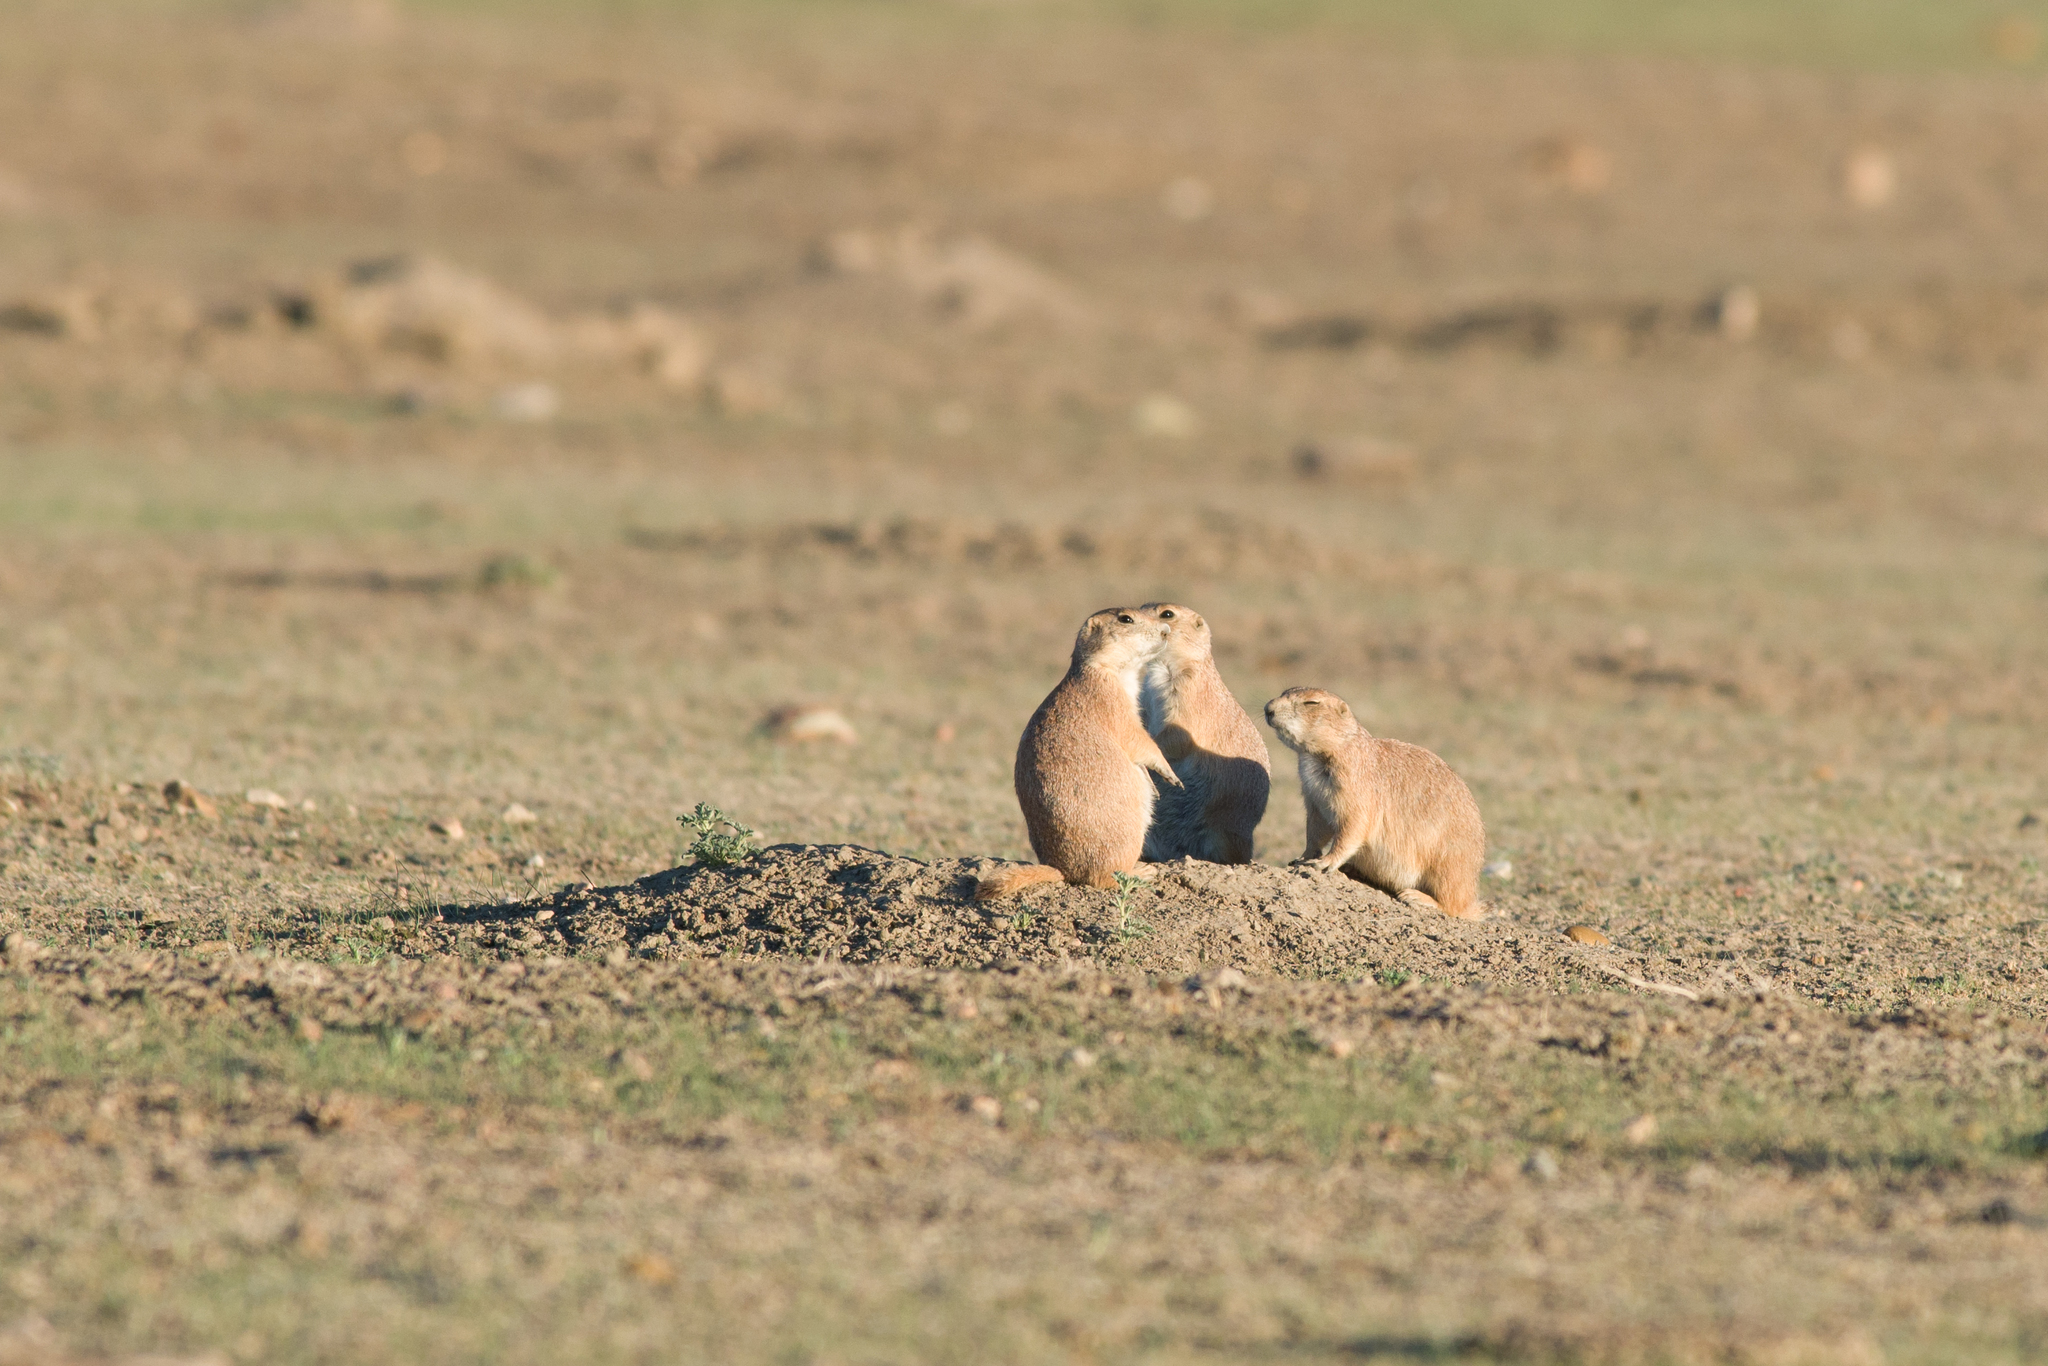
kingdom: Animalia
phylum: Chordata
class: Mammalia
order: Rodentia
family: Sciuridae
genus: Cynomys
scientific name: Cynomys ludovicianus
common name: Black-tailed prairie dog
